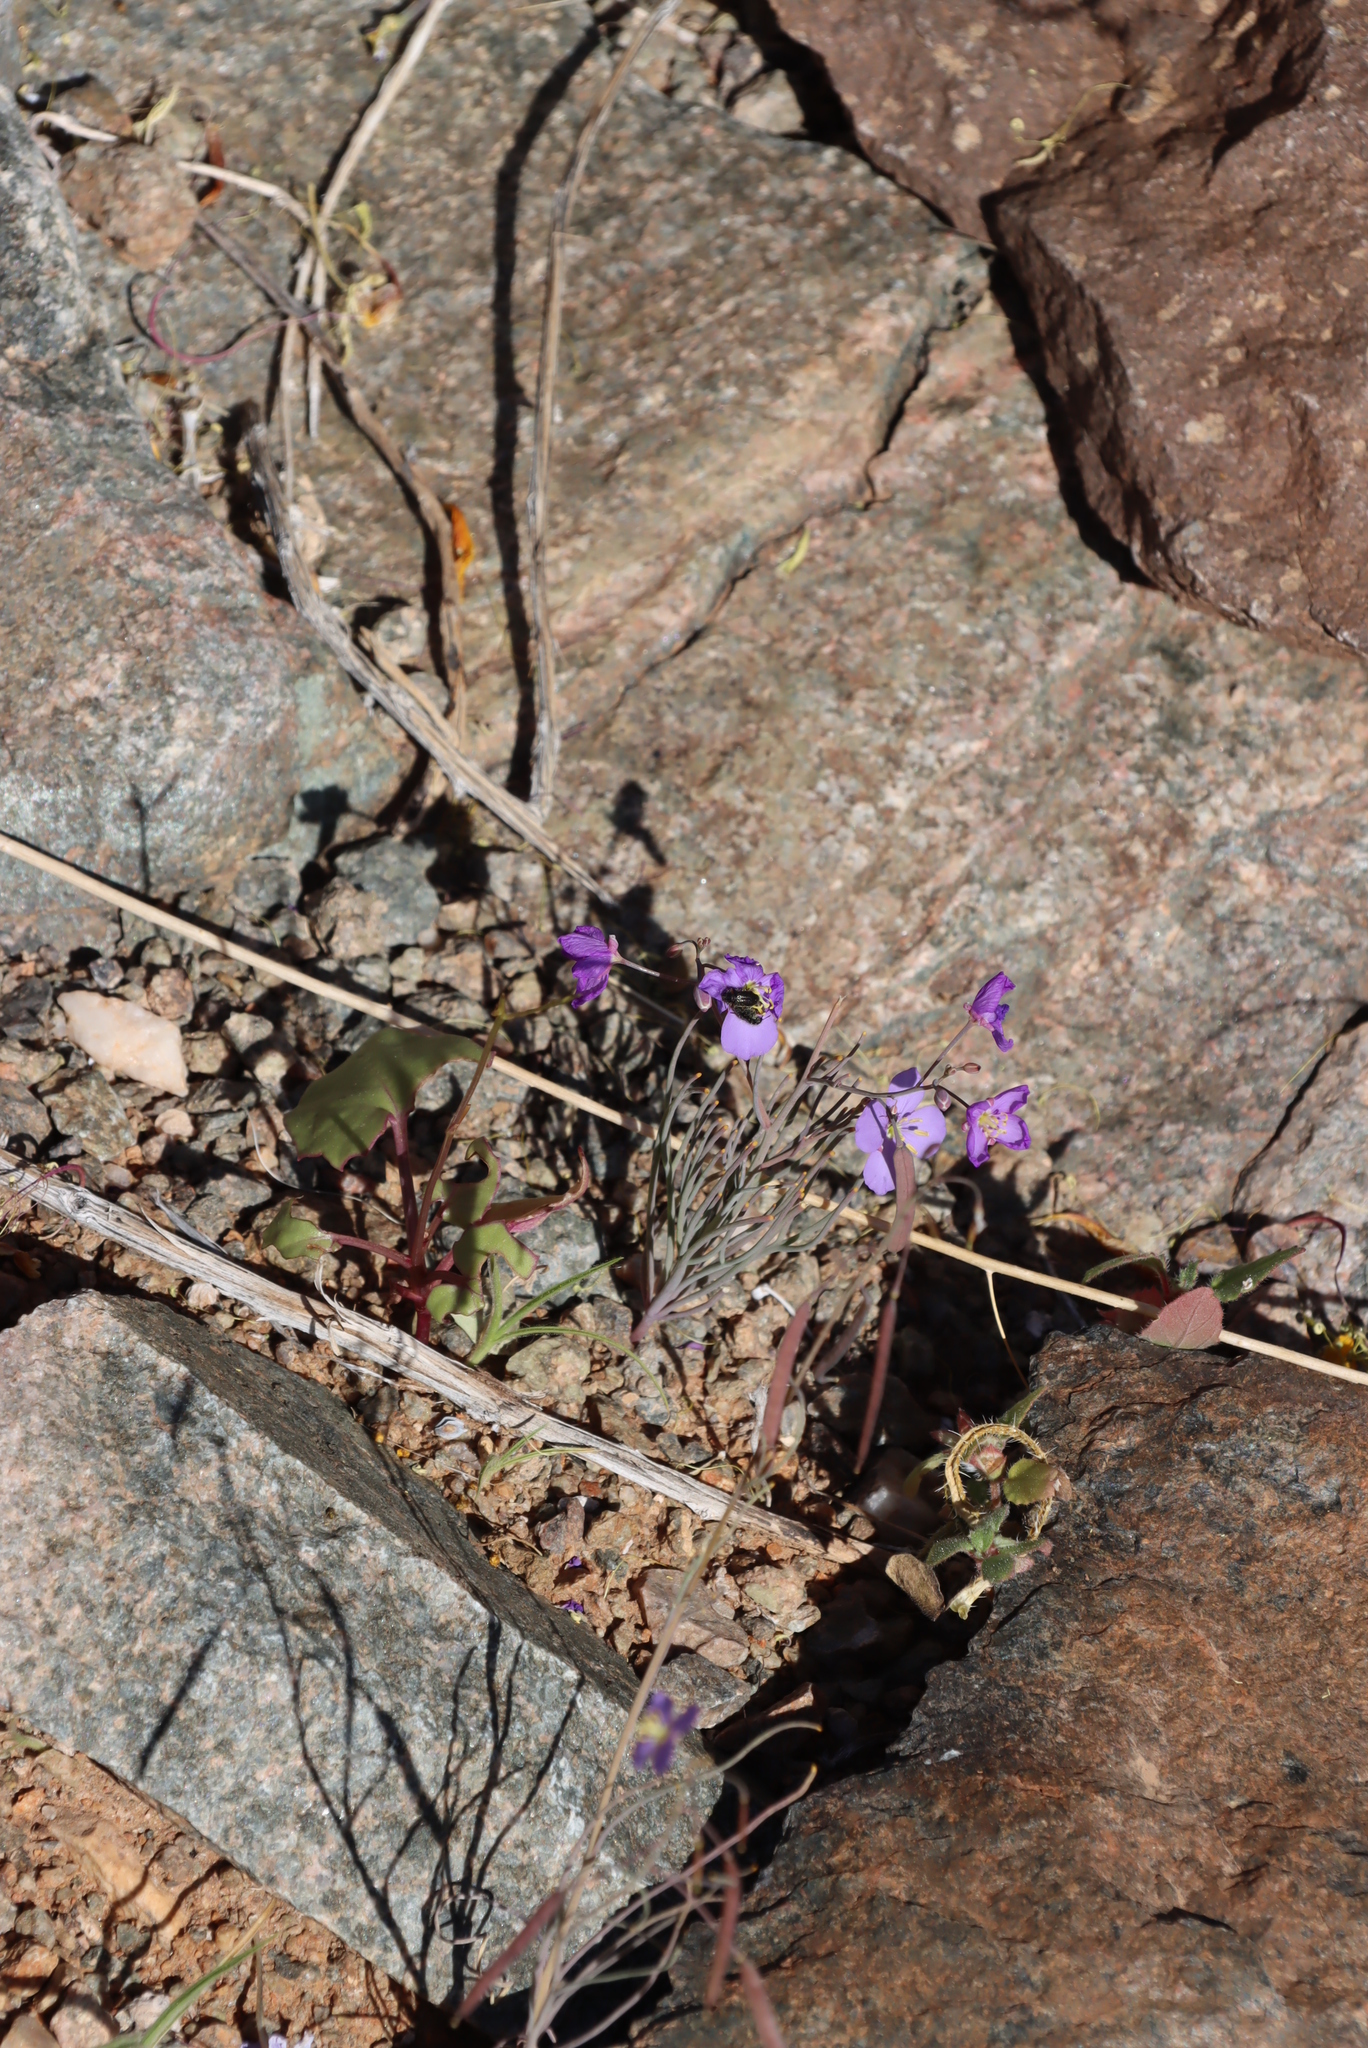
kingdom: Plantae
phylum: Tracheophyta
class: Magnoliopsida
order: Brassicales
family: Brassicaceae
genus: Heliophila
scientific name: Heliophila trifurca
